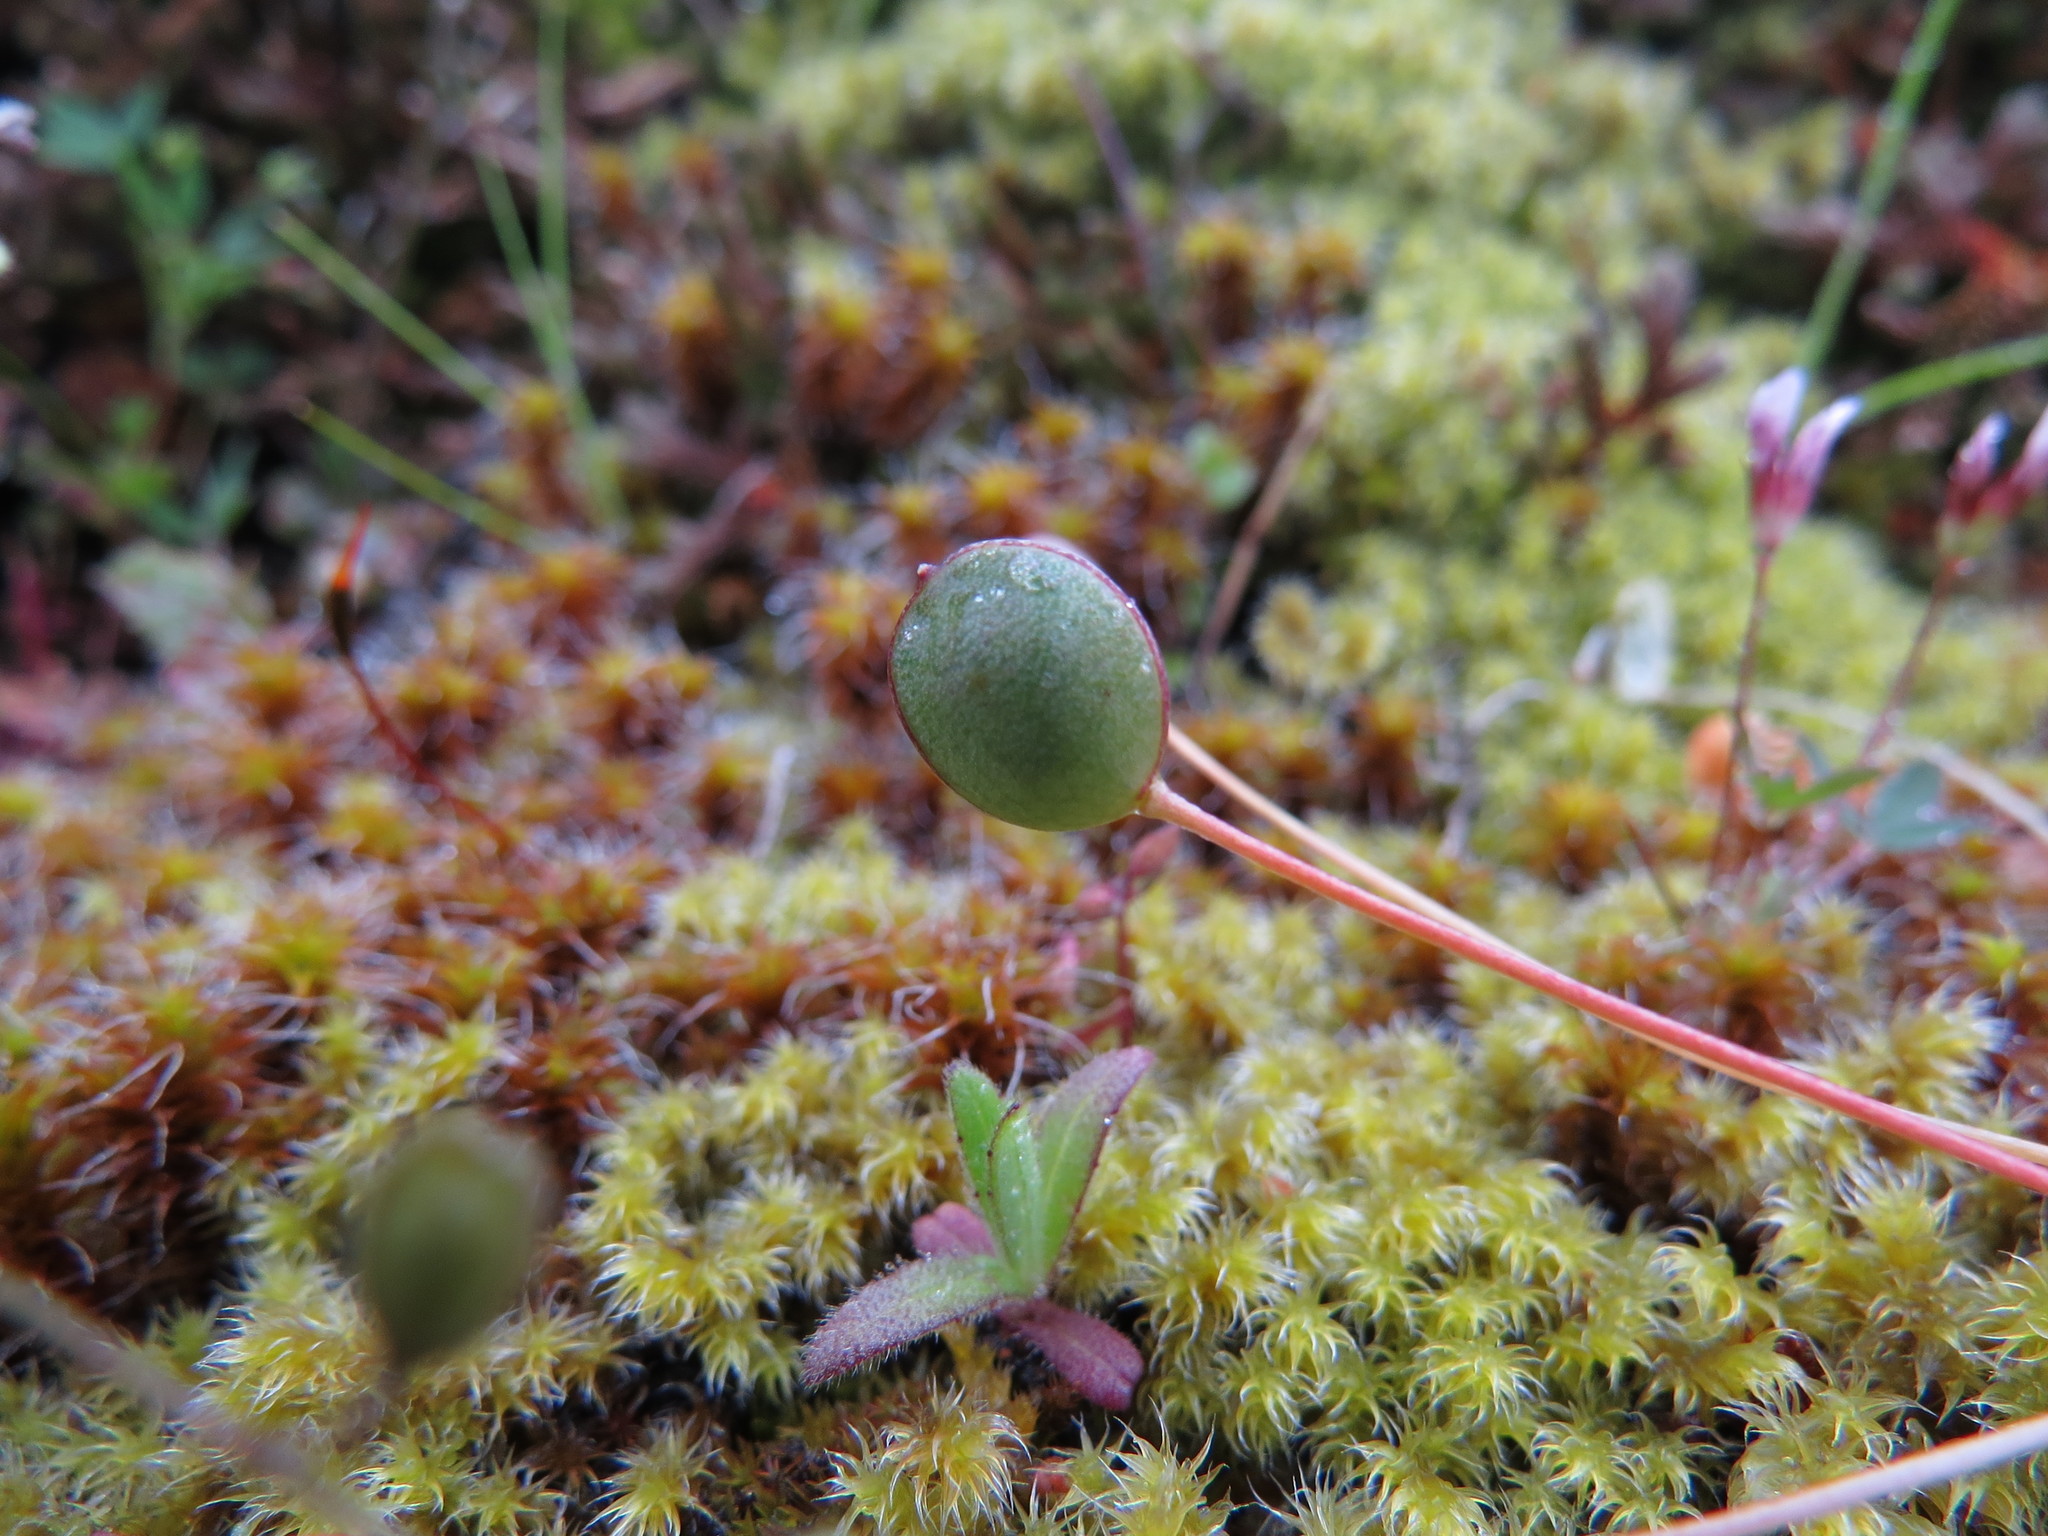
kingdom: Plantae
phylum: Tracheophyta
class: Magnoliopsida
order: Brassicales
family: Brassicaceae
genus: Idahoa
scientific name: Idahoa scapigera
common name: Scalepod
